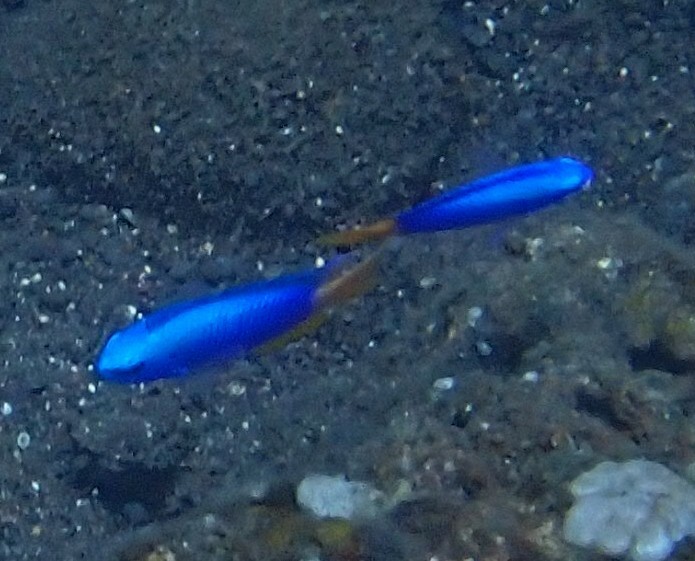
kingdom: Animalia
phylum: Chordata
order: Perciformes
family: Pomacentridae
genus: Pomacentrus
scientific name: Pomacentrus coelestis
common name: Neon damsel
